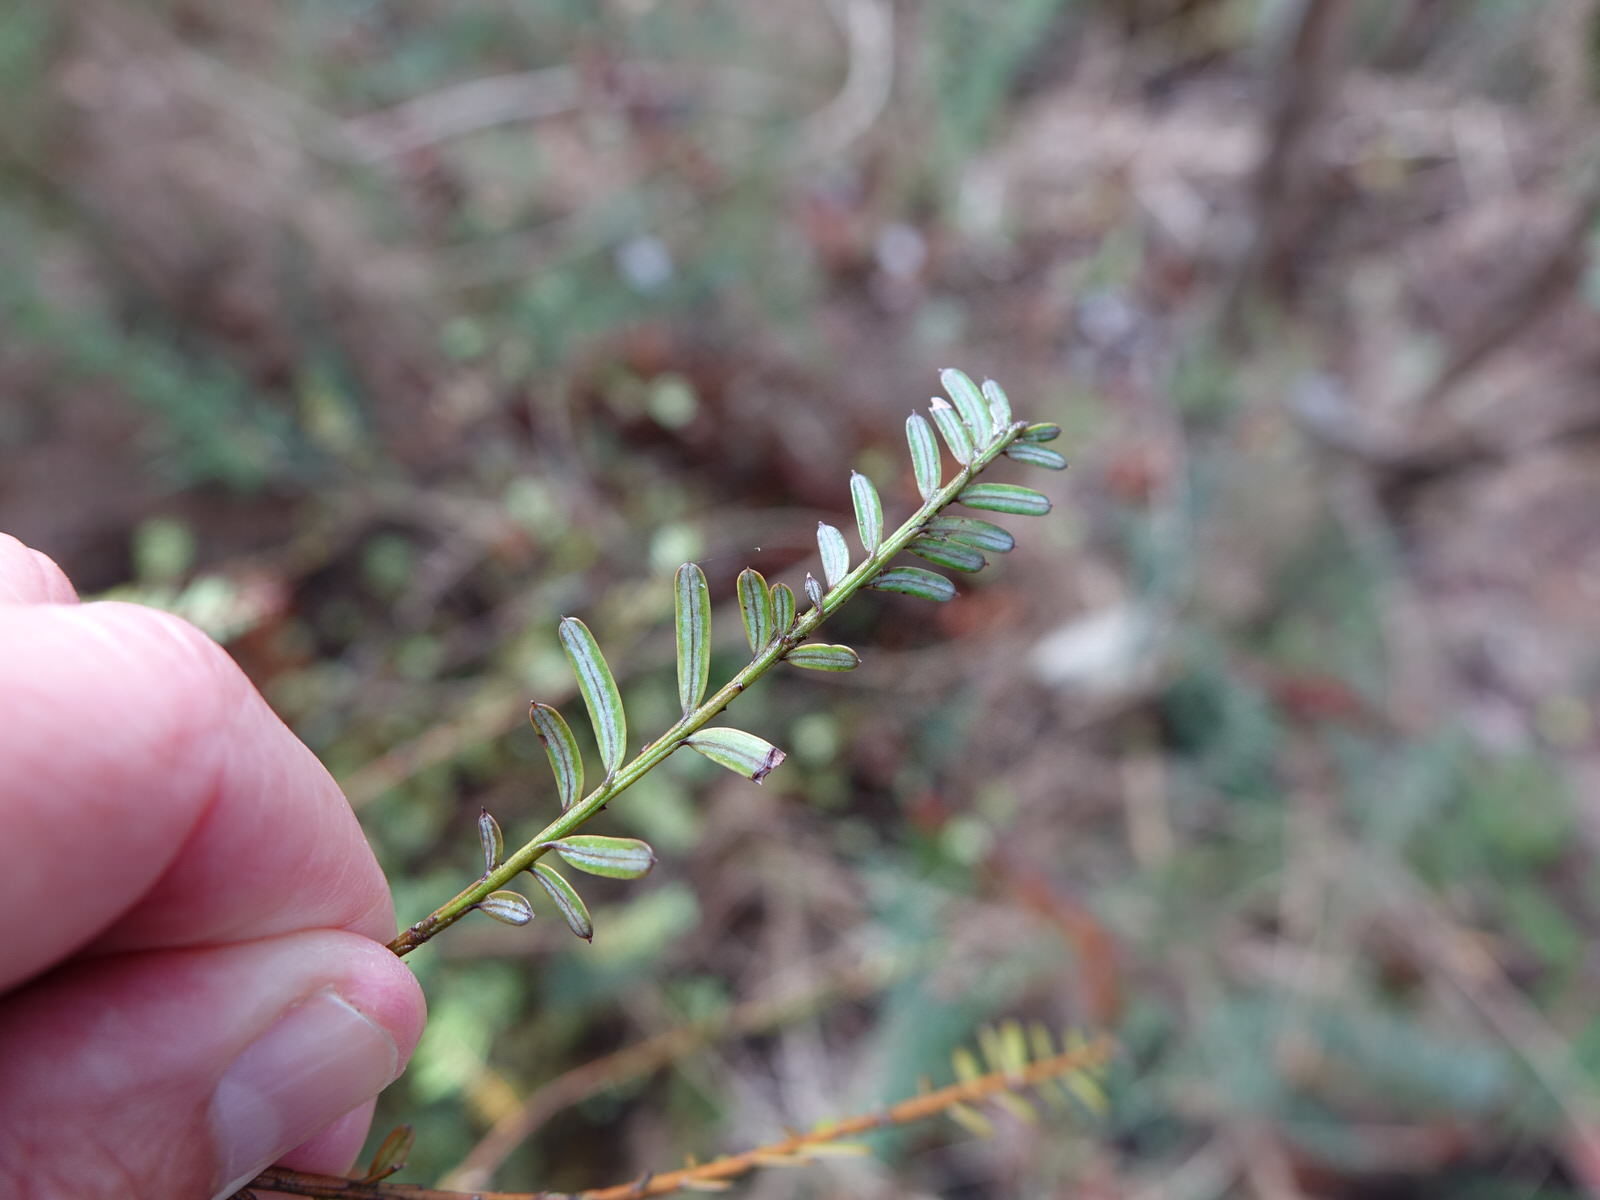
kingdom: Plantae
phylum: Tracheophyta
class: Pinopsida
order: Pinales
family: Podocarpaceae
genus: Prumnopitys
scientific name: Prumnopitys taxifolia
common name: Matai
